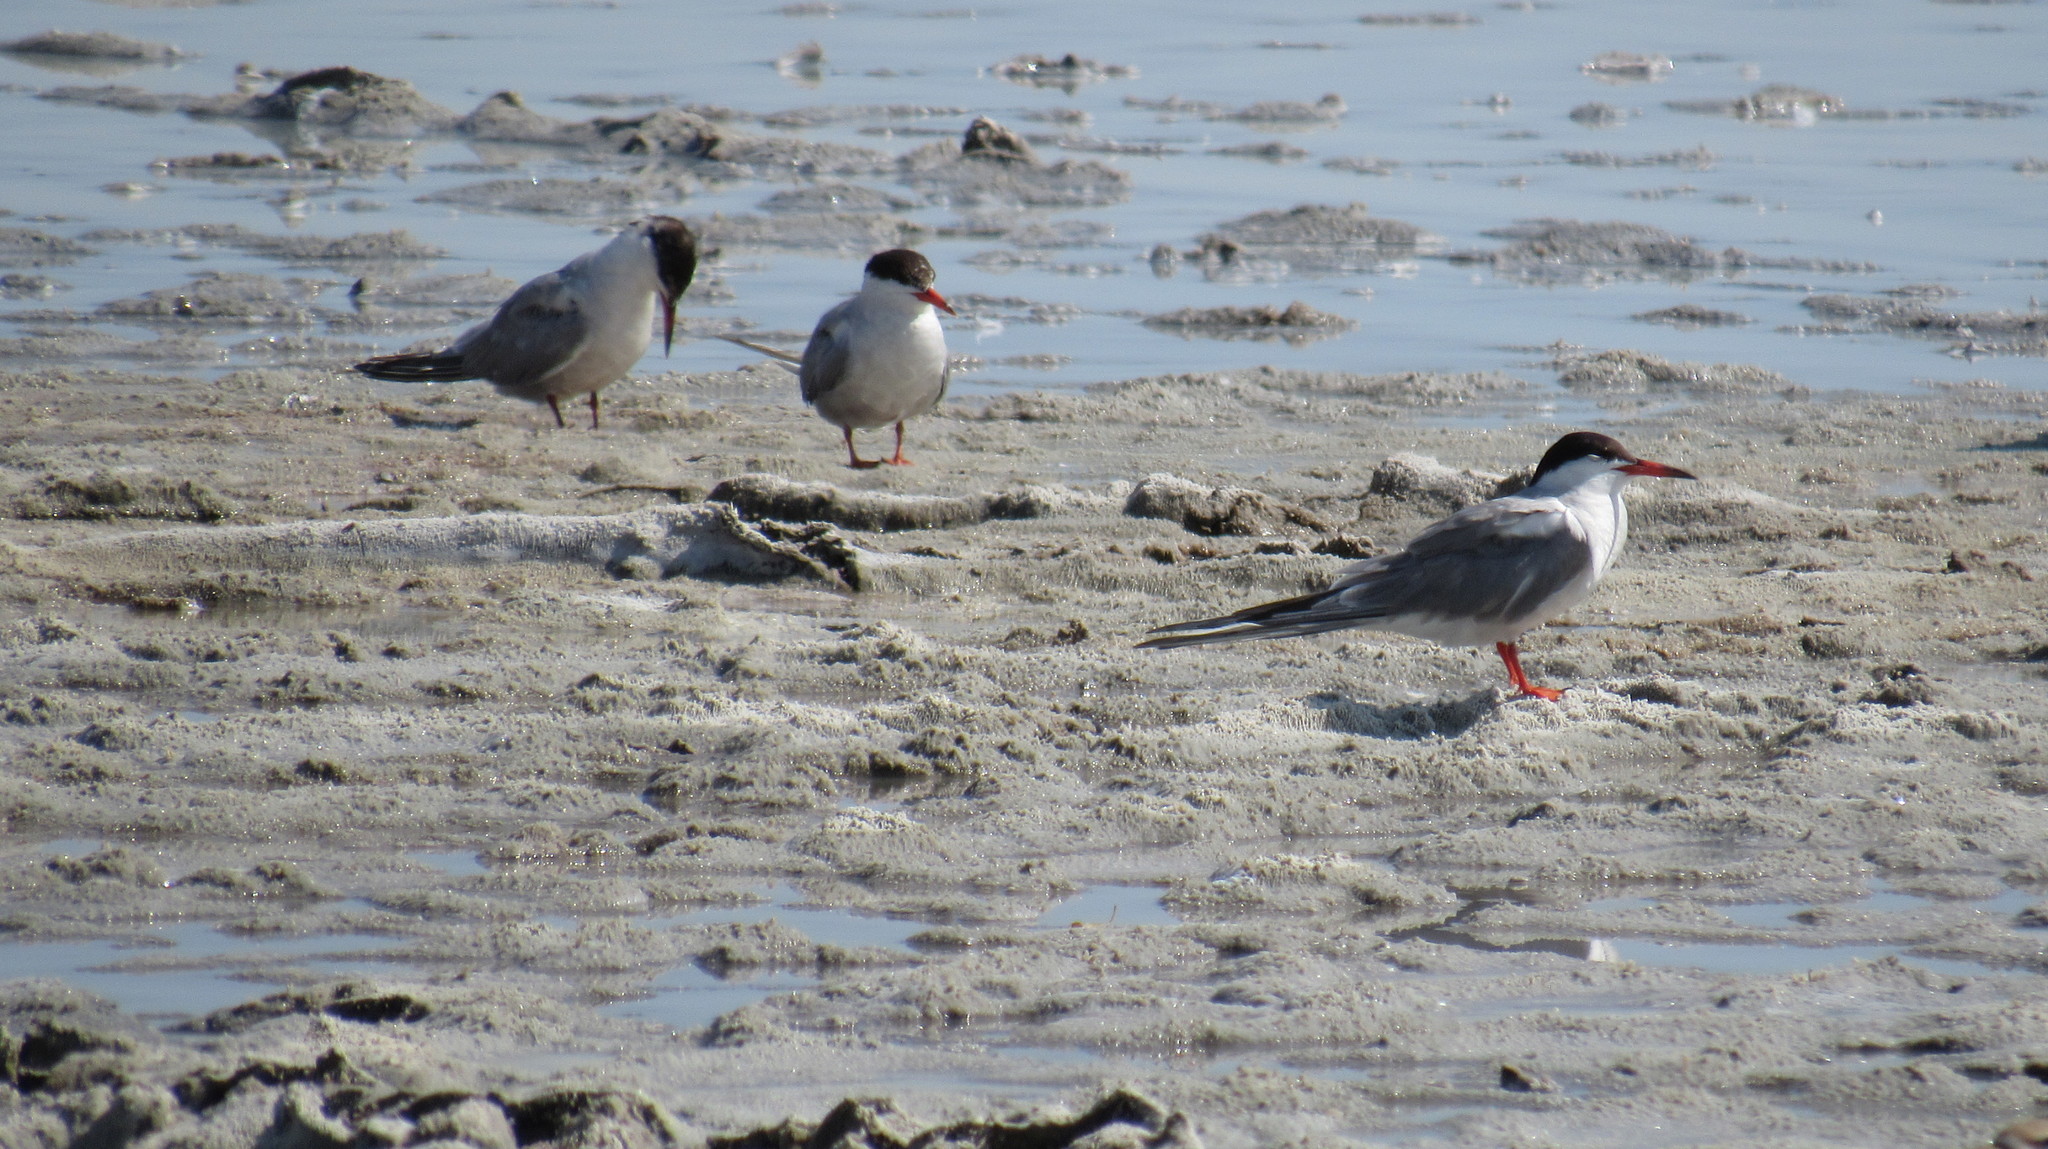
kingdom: Animalia
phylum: Chordata
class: Aves
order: Charadriiformes
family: Laridae
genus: Sterna
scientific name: Sterna hirundo
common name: Common tern
